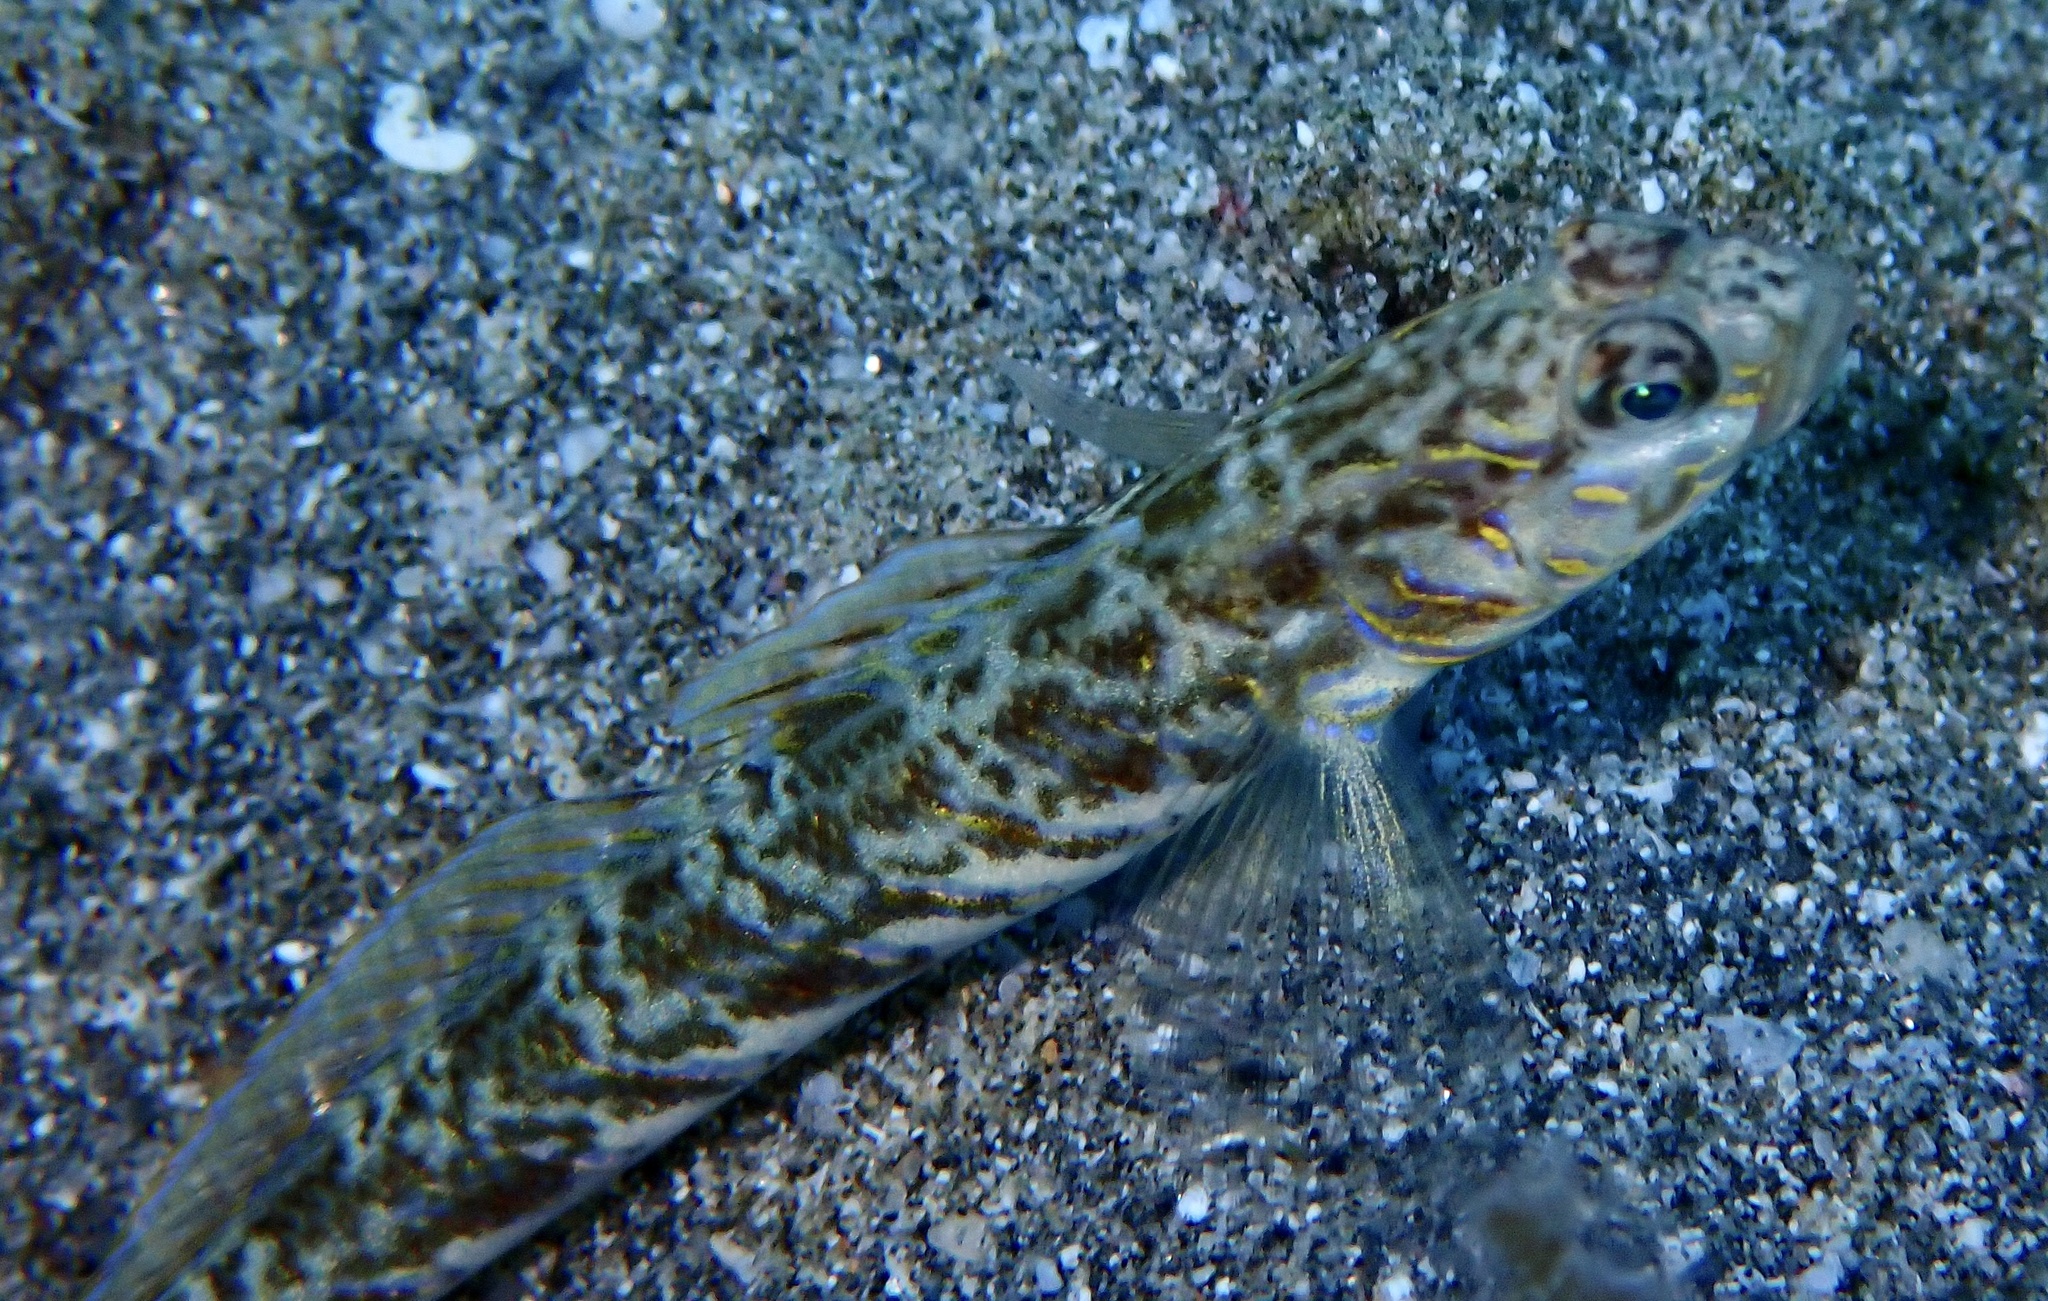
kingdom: Animalia
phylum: Chordata
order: Perciformes
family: Gobiidae
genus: Vanderhorstia
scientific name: Vanderhorstia delagoae
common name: Candystick goby
